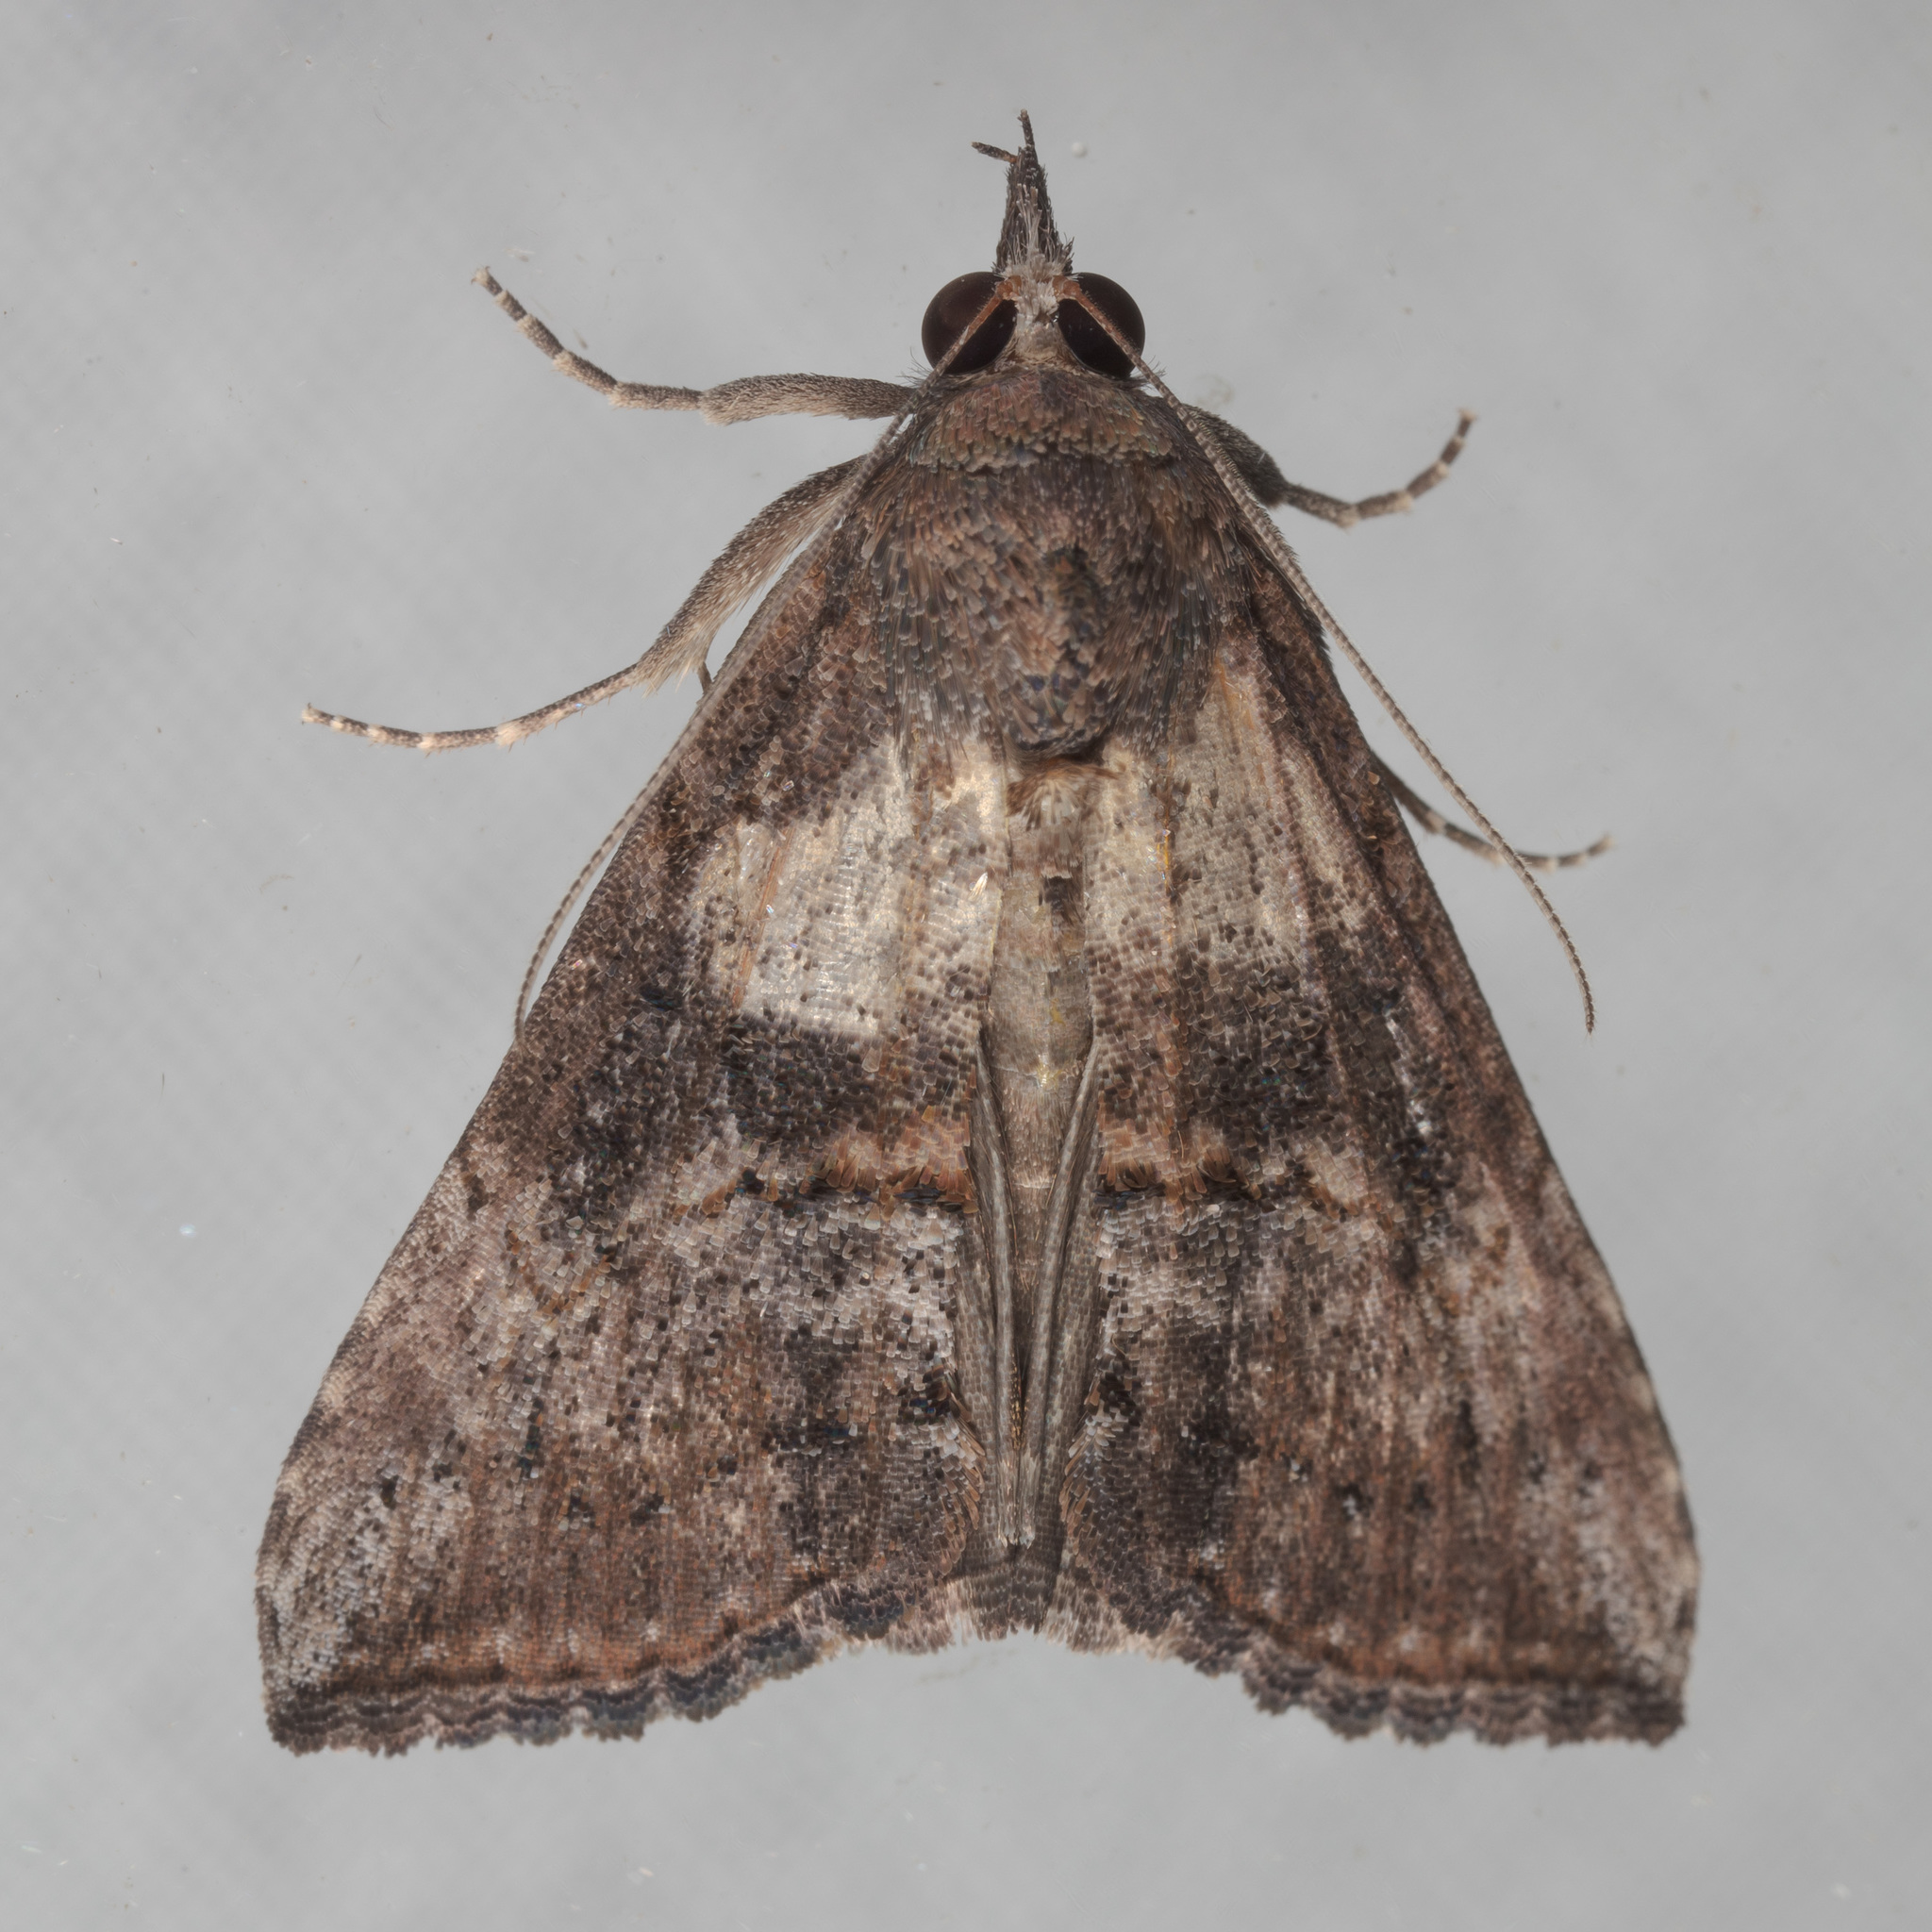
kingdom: Animalia
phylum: Arthropoda
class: Insecta
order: Lepidoptera
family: Erebidae
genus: Hypena
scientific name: Hypena scabra
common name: Green cloverworm
